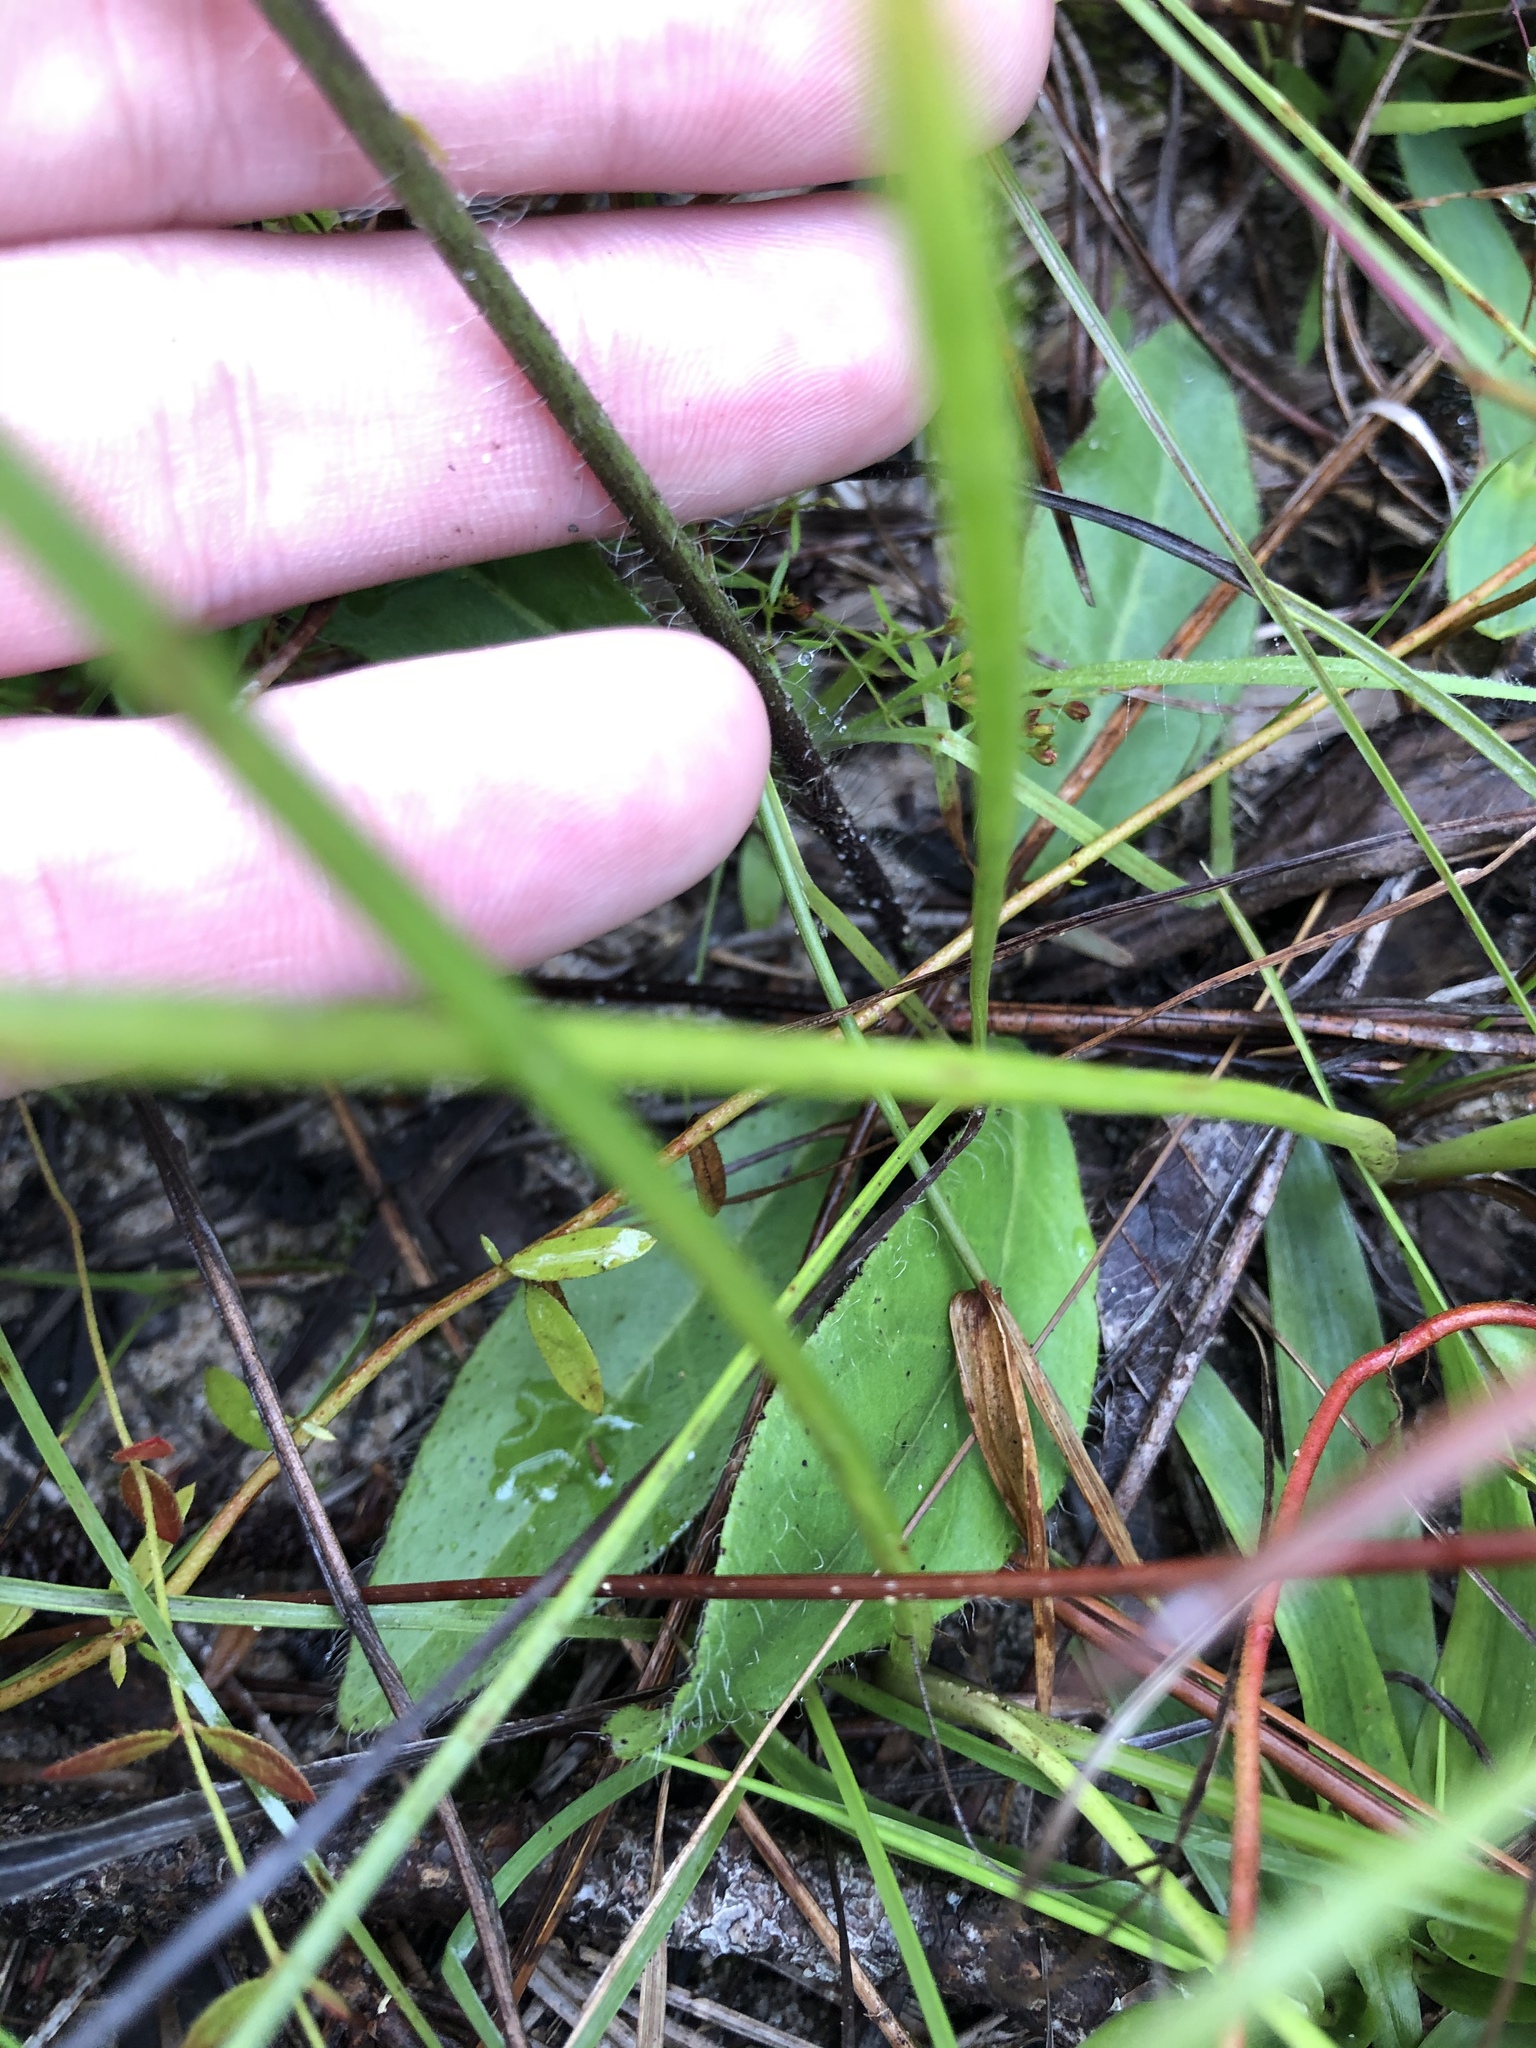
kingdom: Plantae
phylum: Tracheophyta
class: Magnoliopsida
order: Asterales
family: Asteraceae
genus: Hieracium
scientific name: Hieracium gronovii
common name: Beaked hawkweed
